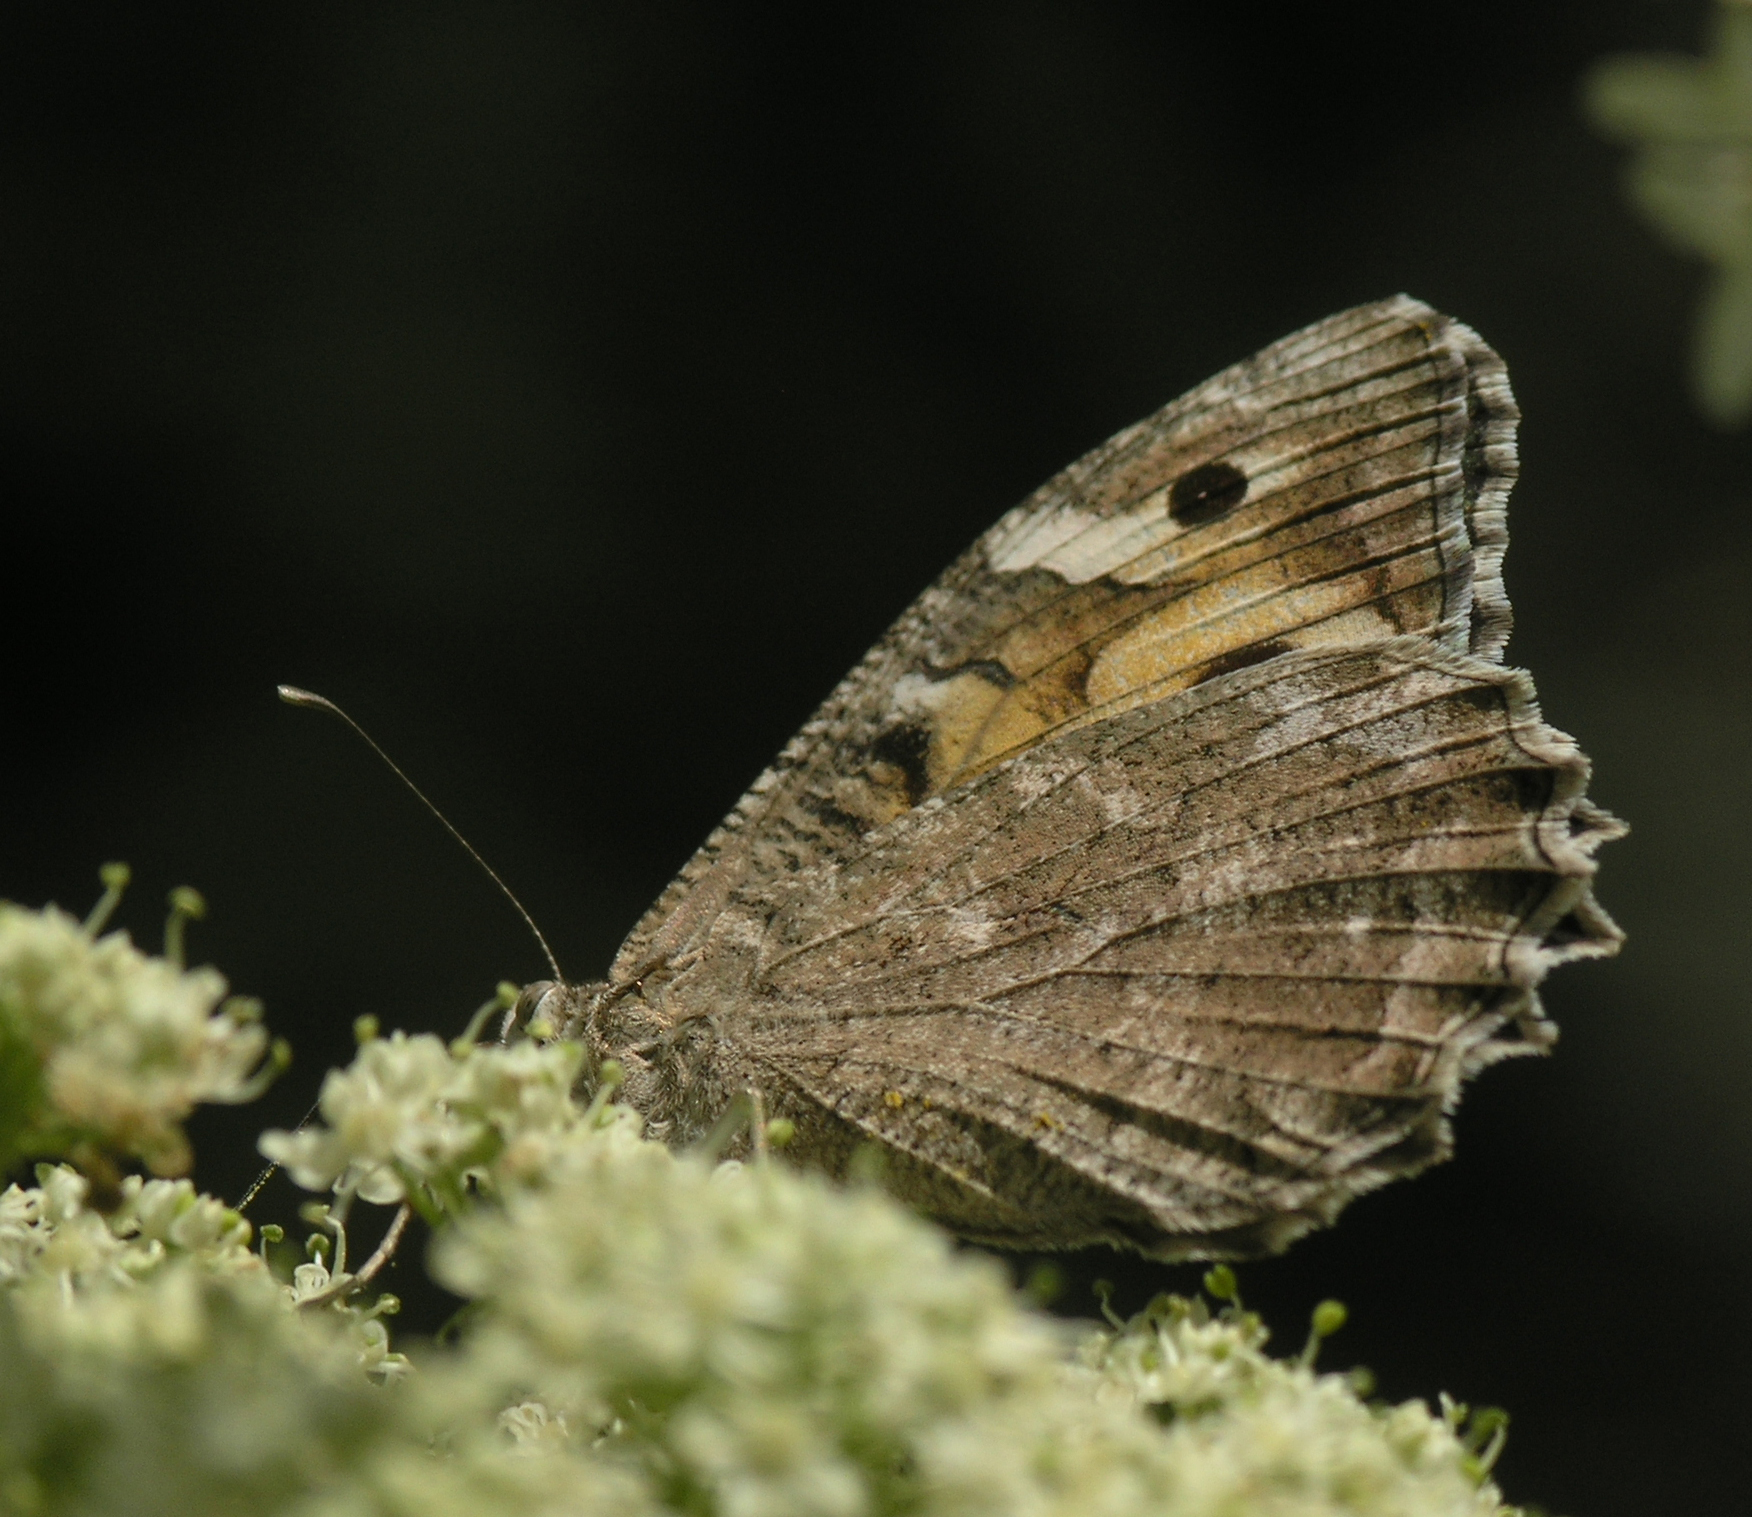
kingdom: Animalia
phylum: Arthropoda
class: Insecta
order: Lepidoptera
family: Nymphalidae
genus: Satyrus
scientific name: Satyrus Chazara enervata
